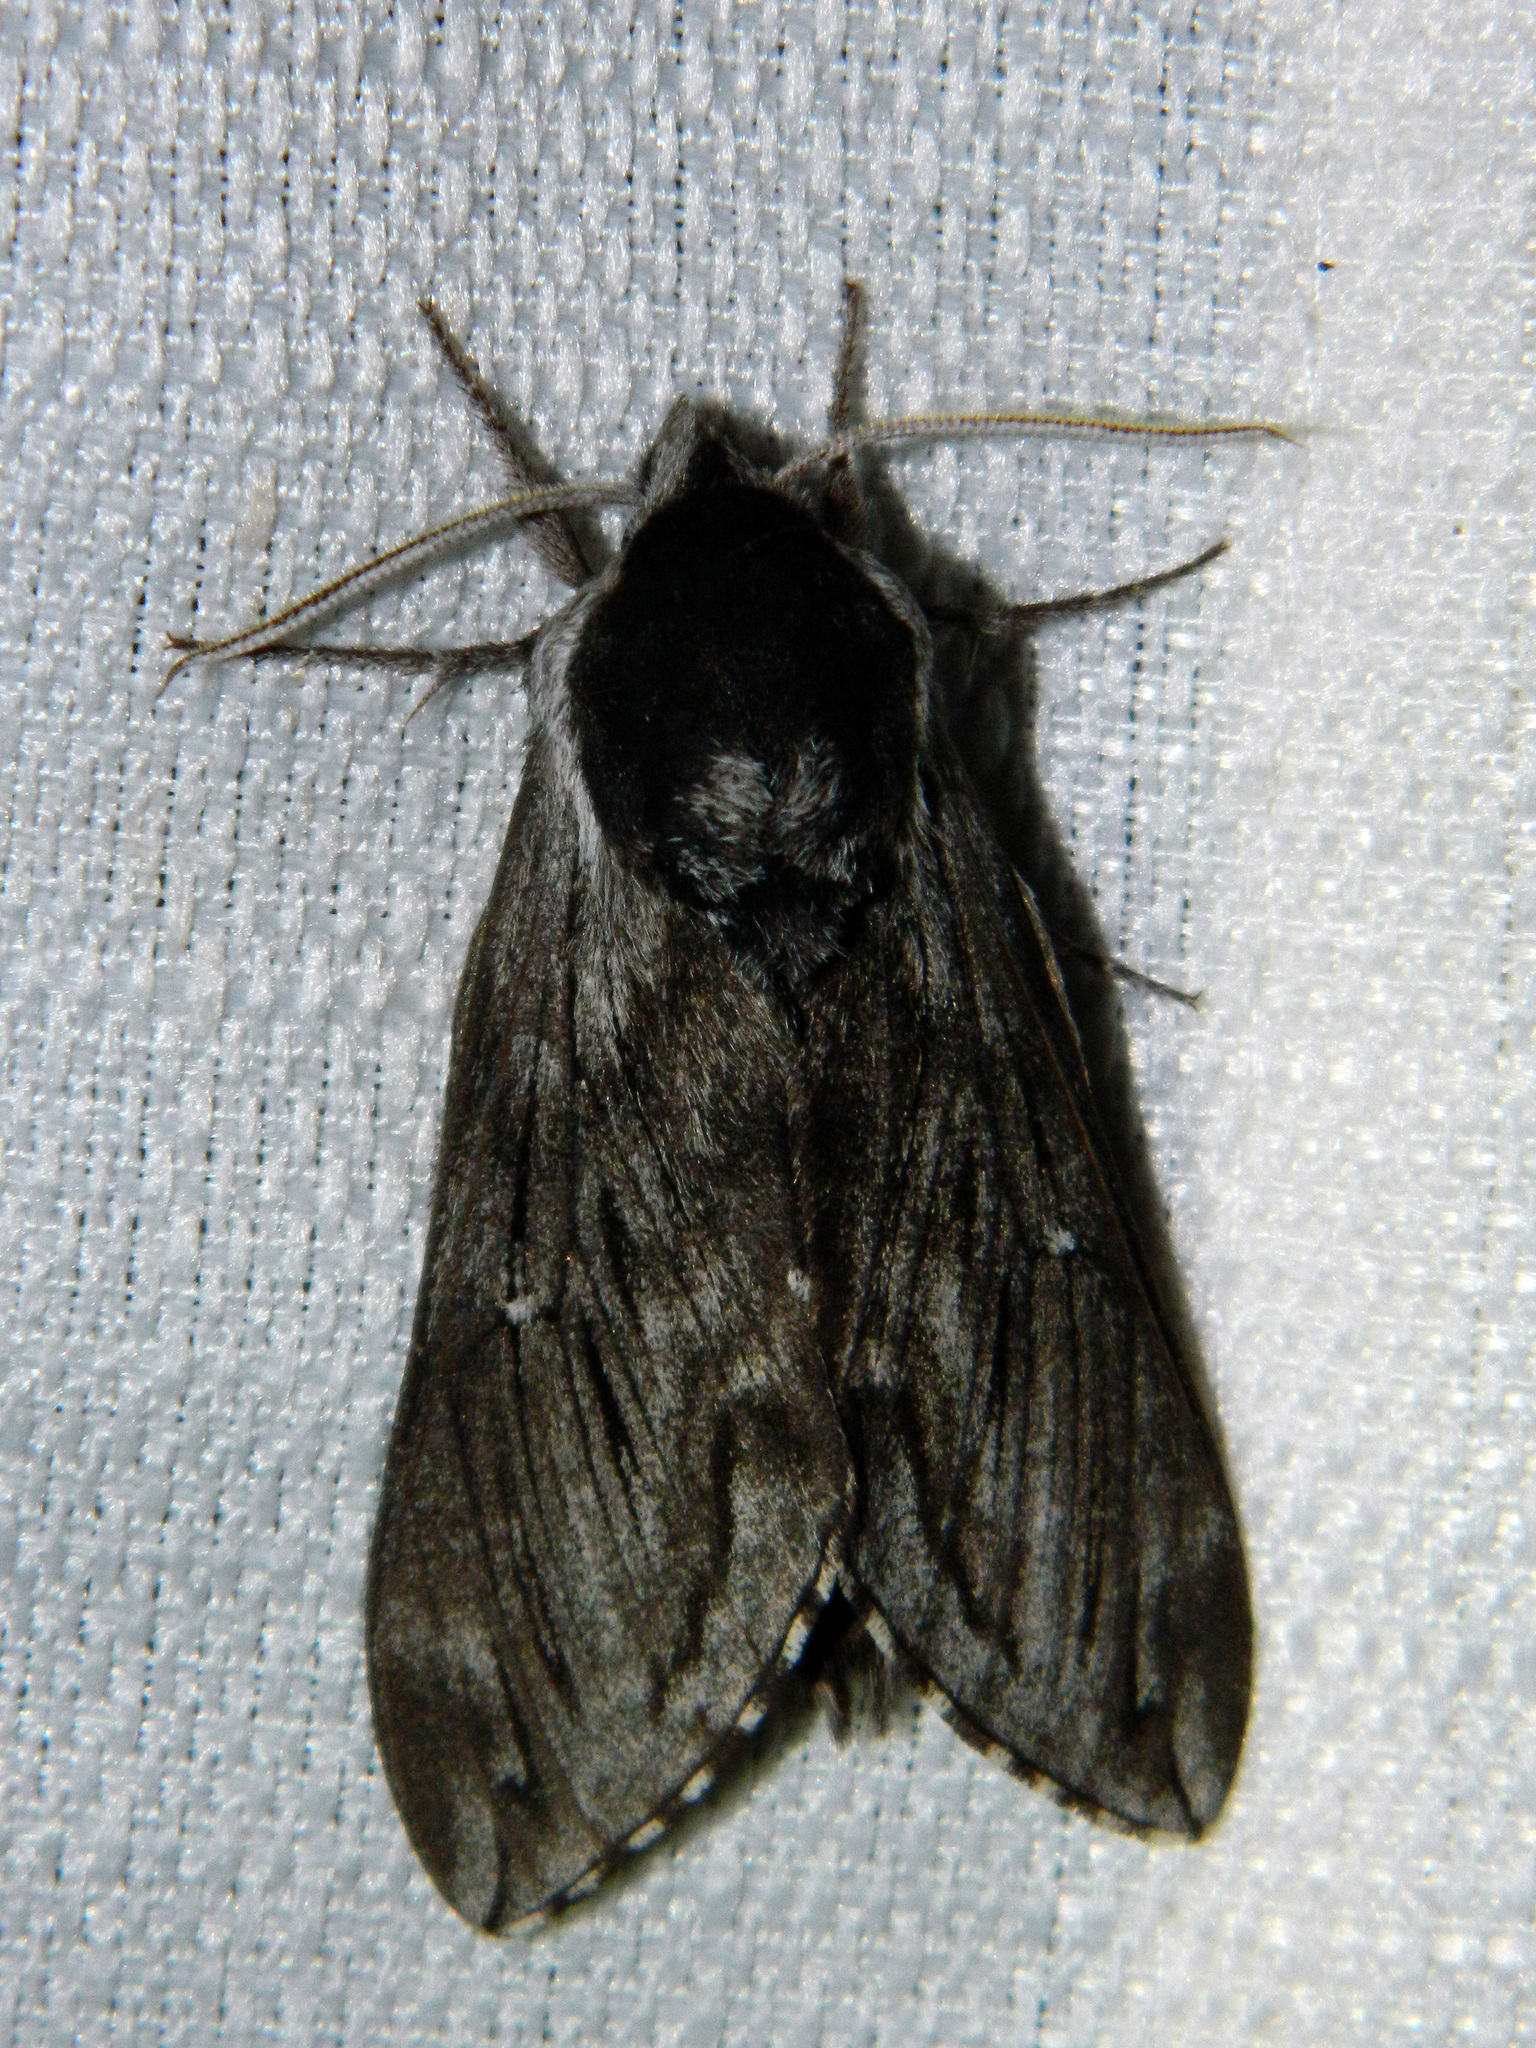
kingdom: Animalia
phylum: Arthropoda
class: Insecta
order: Lepidoptera
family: Sphingidae
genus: Sphinx
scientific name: Sphinx poecila
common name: Northern apple sphinx
